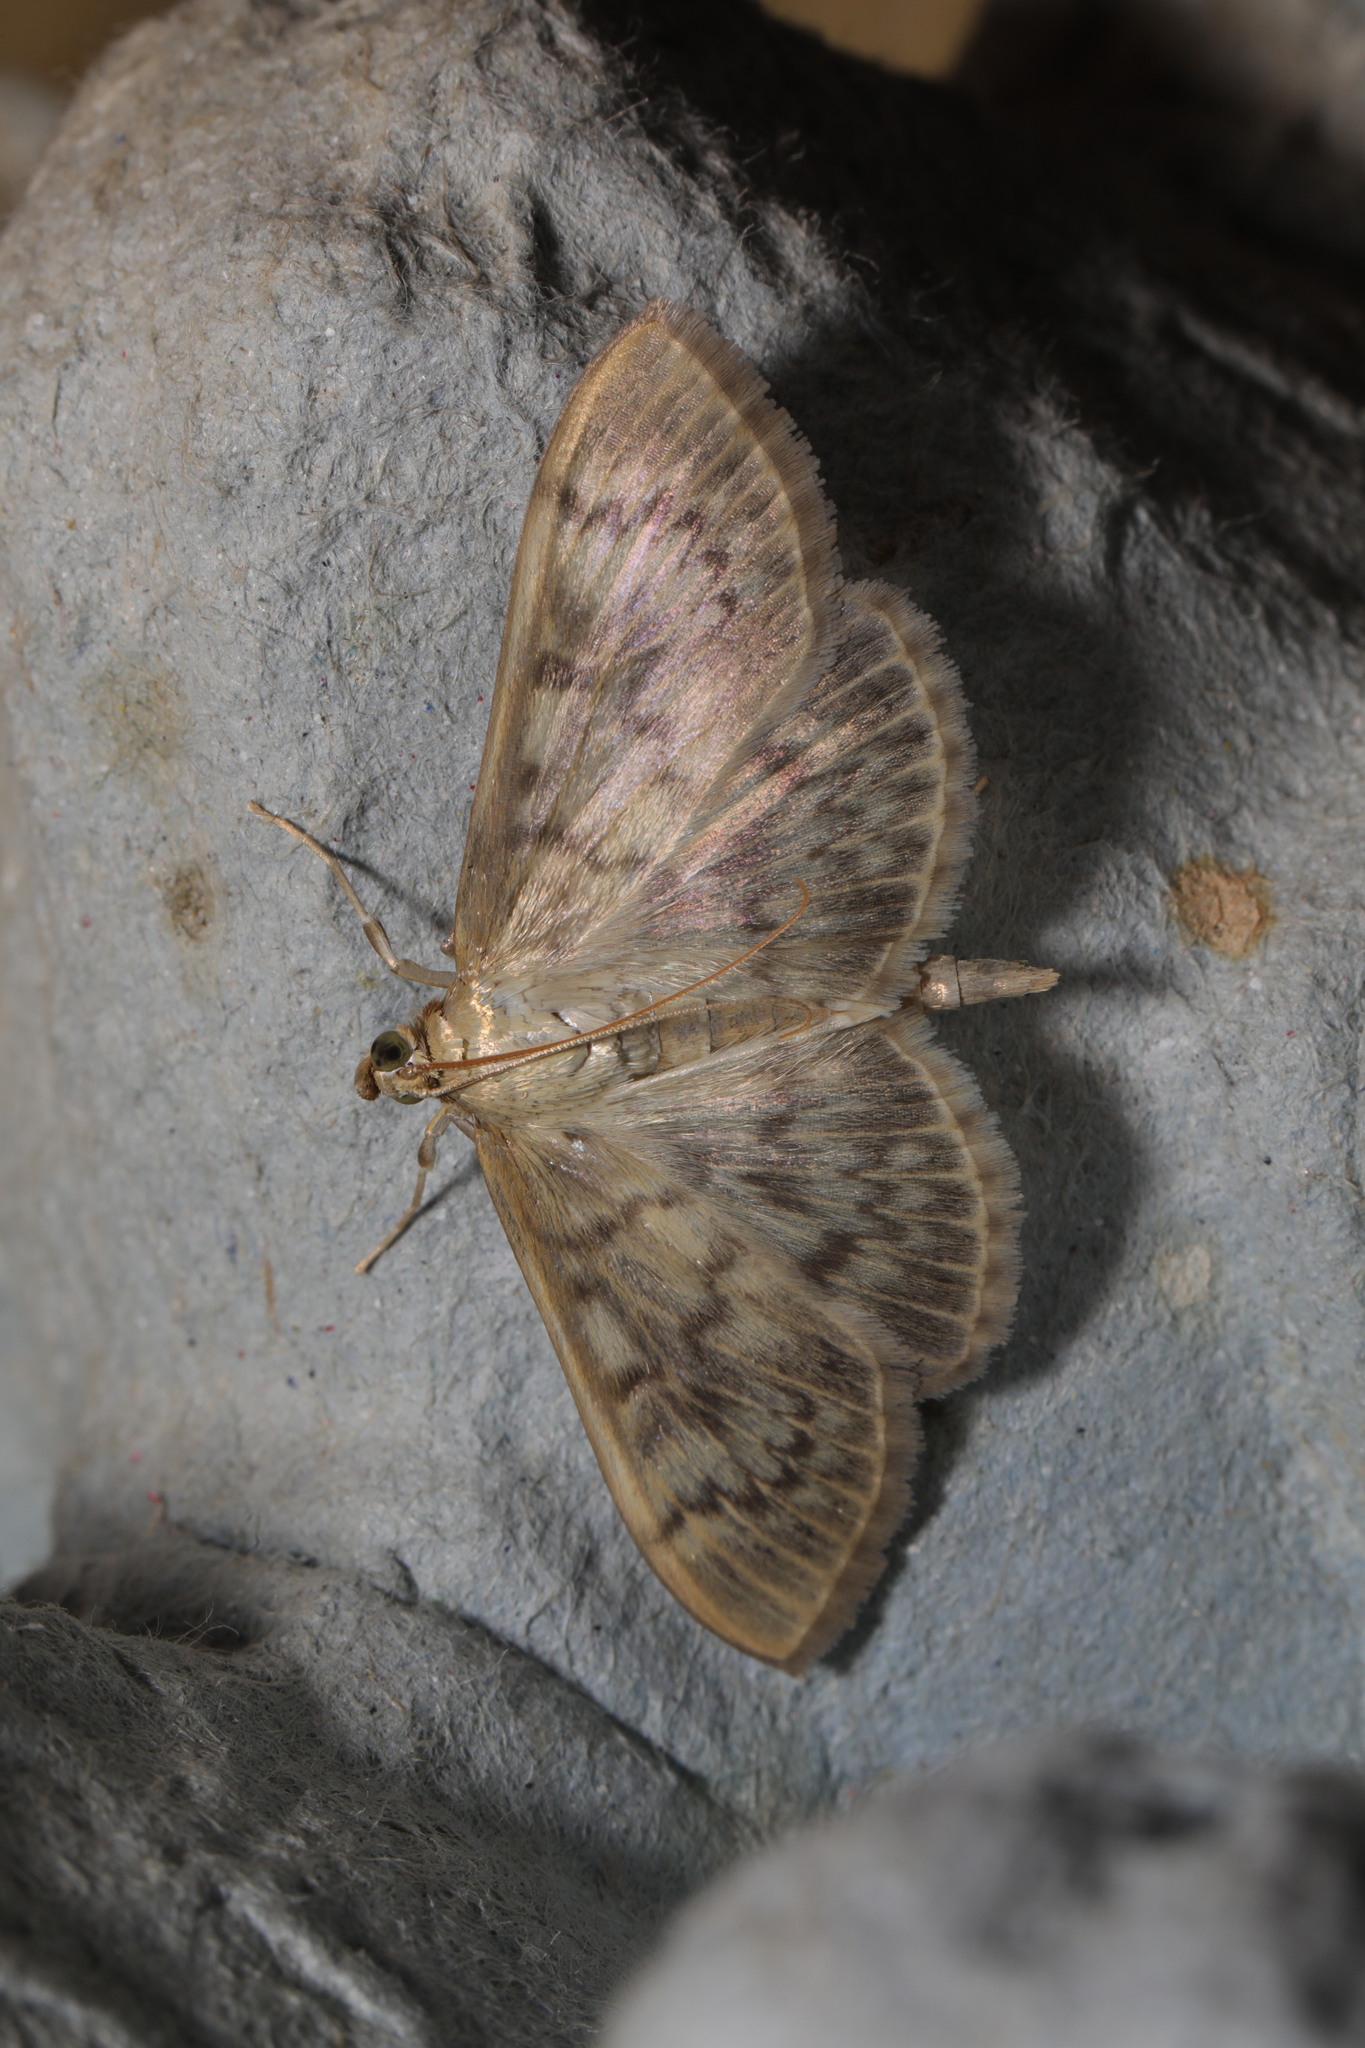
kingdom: Animalia
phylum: Arthropoda
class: Insecta
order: Lepidoptera
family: Crambidae
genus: Patania
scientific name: Patania ruralis
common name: Mother of pearl
